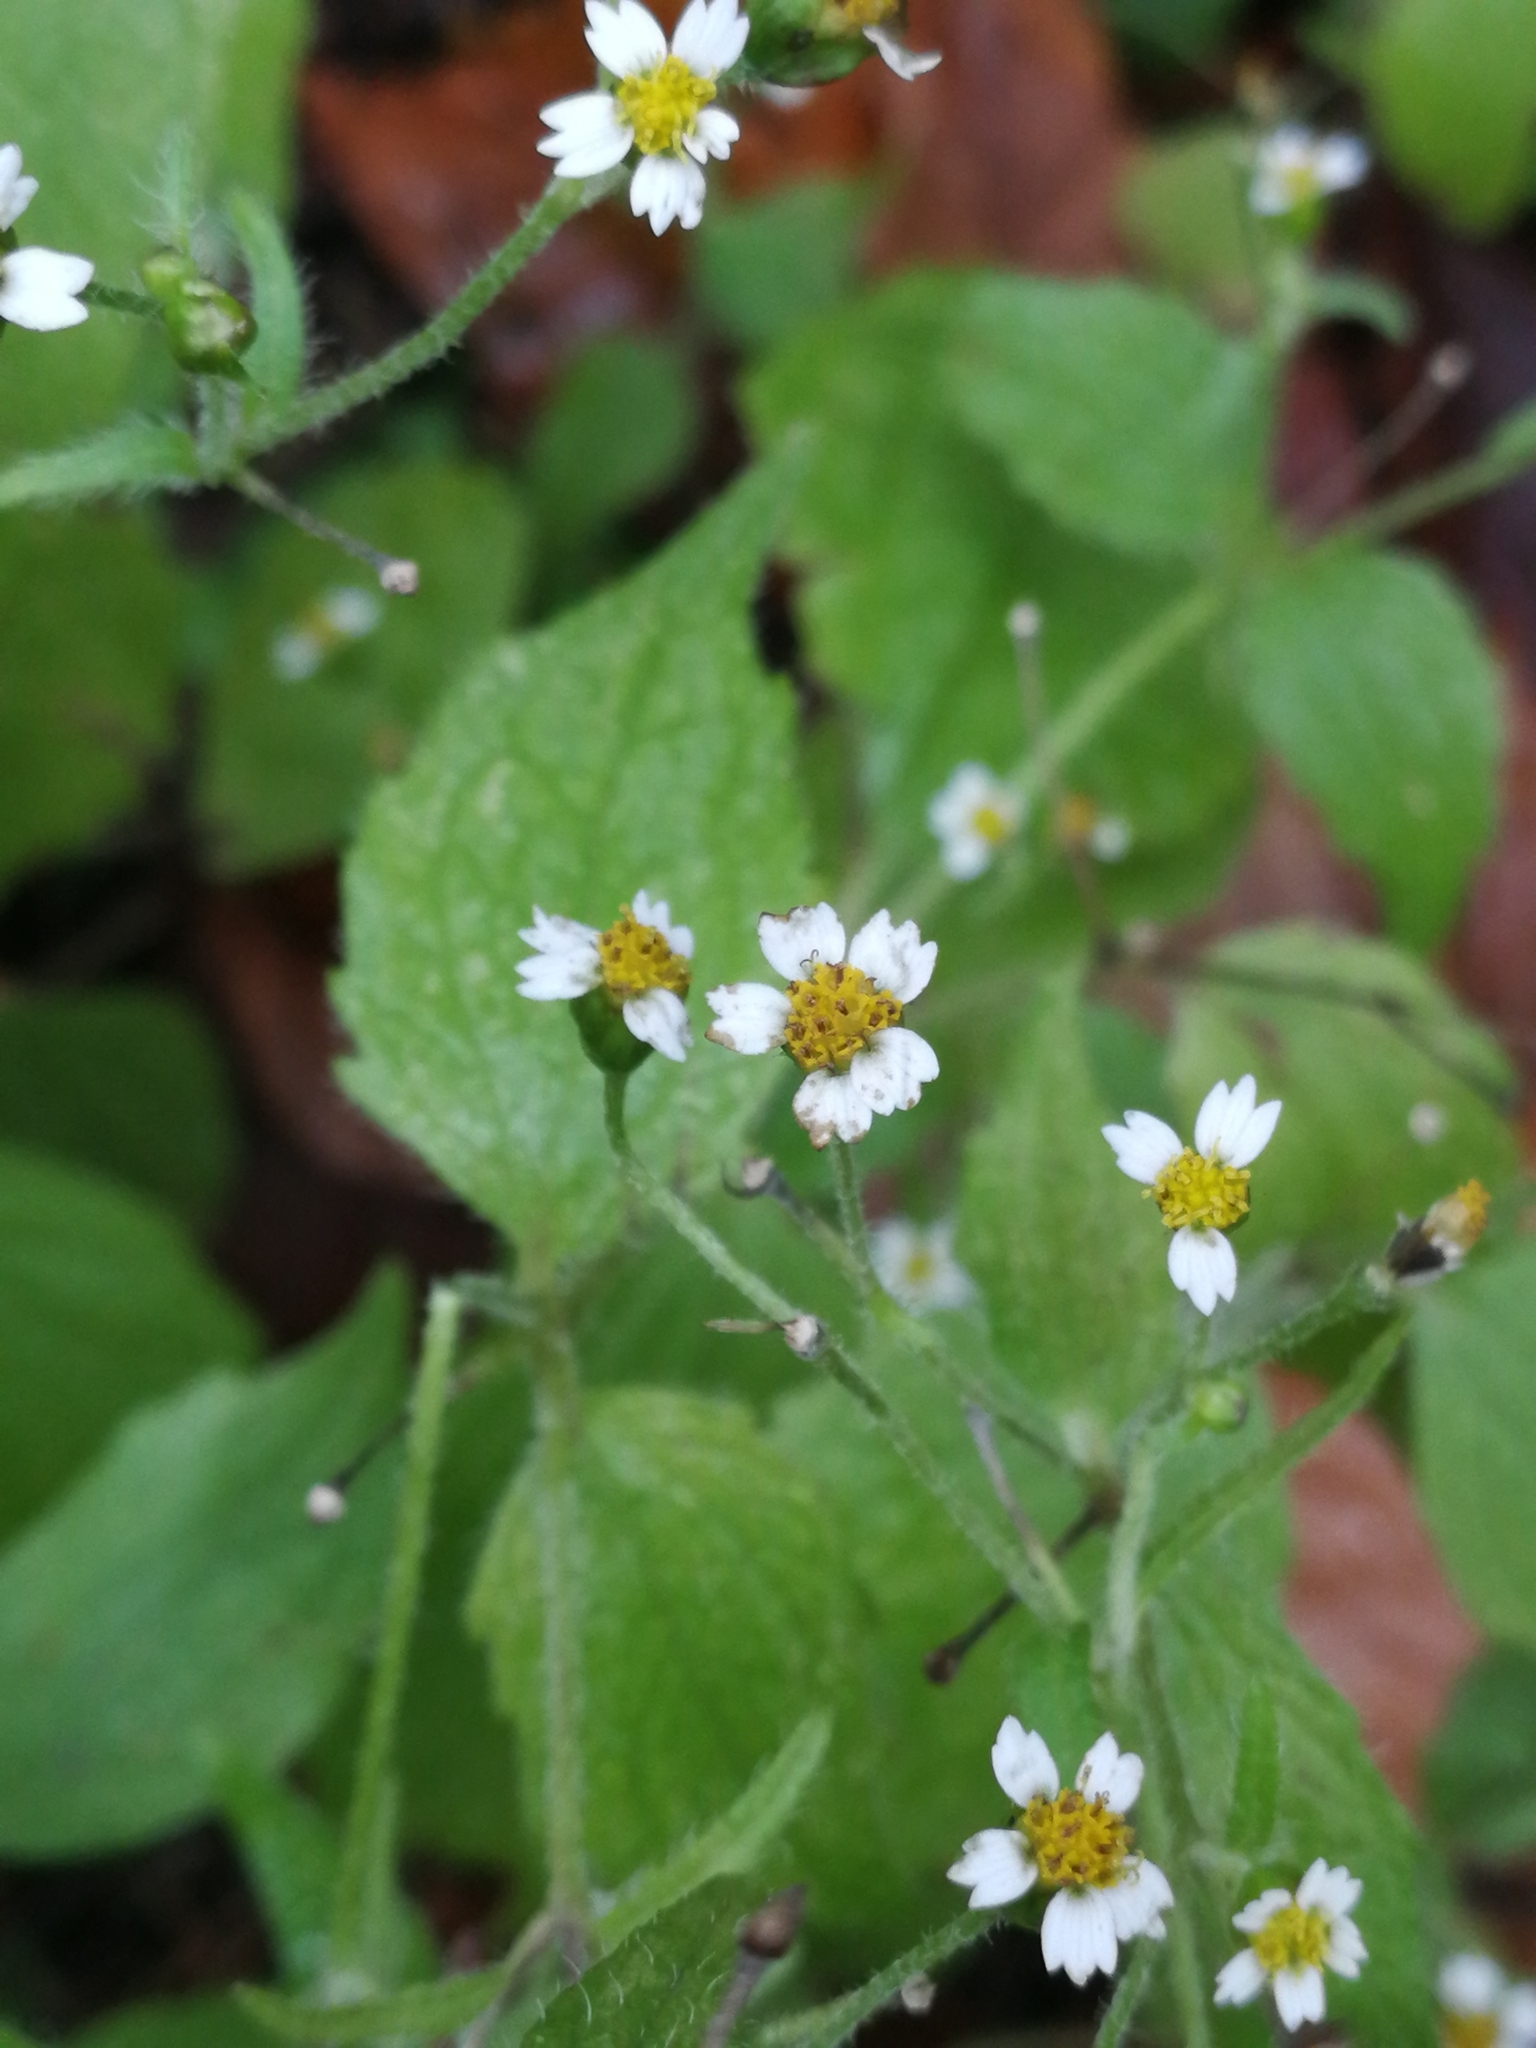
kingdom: Plantae
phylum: Tracheophyta
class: Magnoliopsida
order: Asterales
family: Asteraceae
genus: Galinsoga
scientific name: Galinsoga quadriradiata
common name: Shaggy soldier
